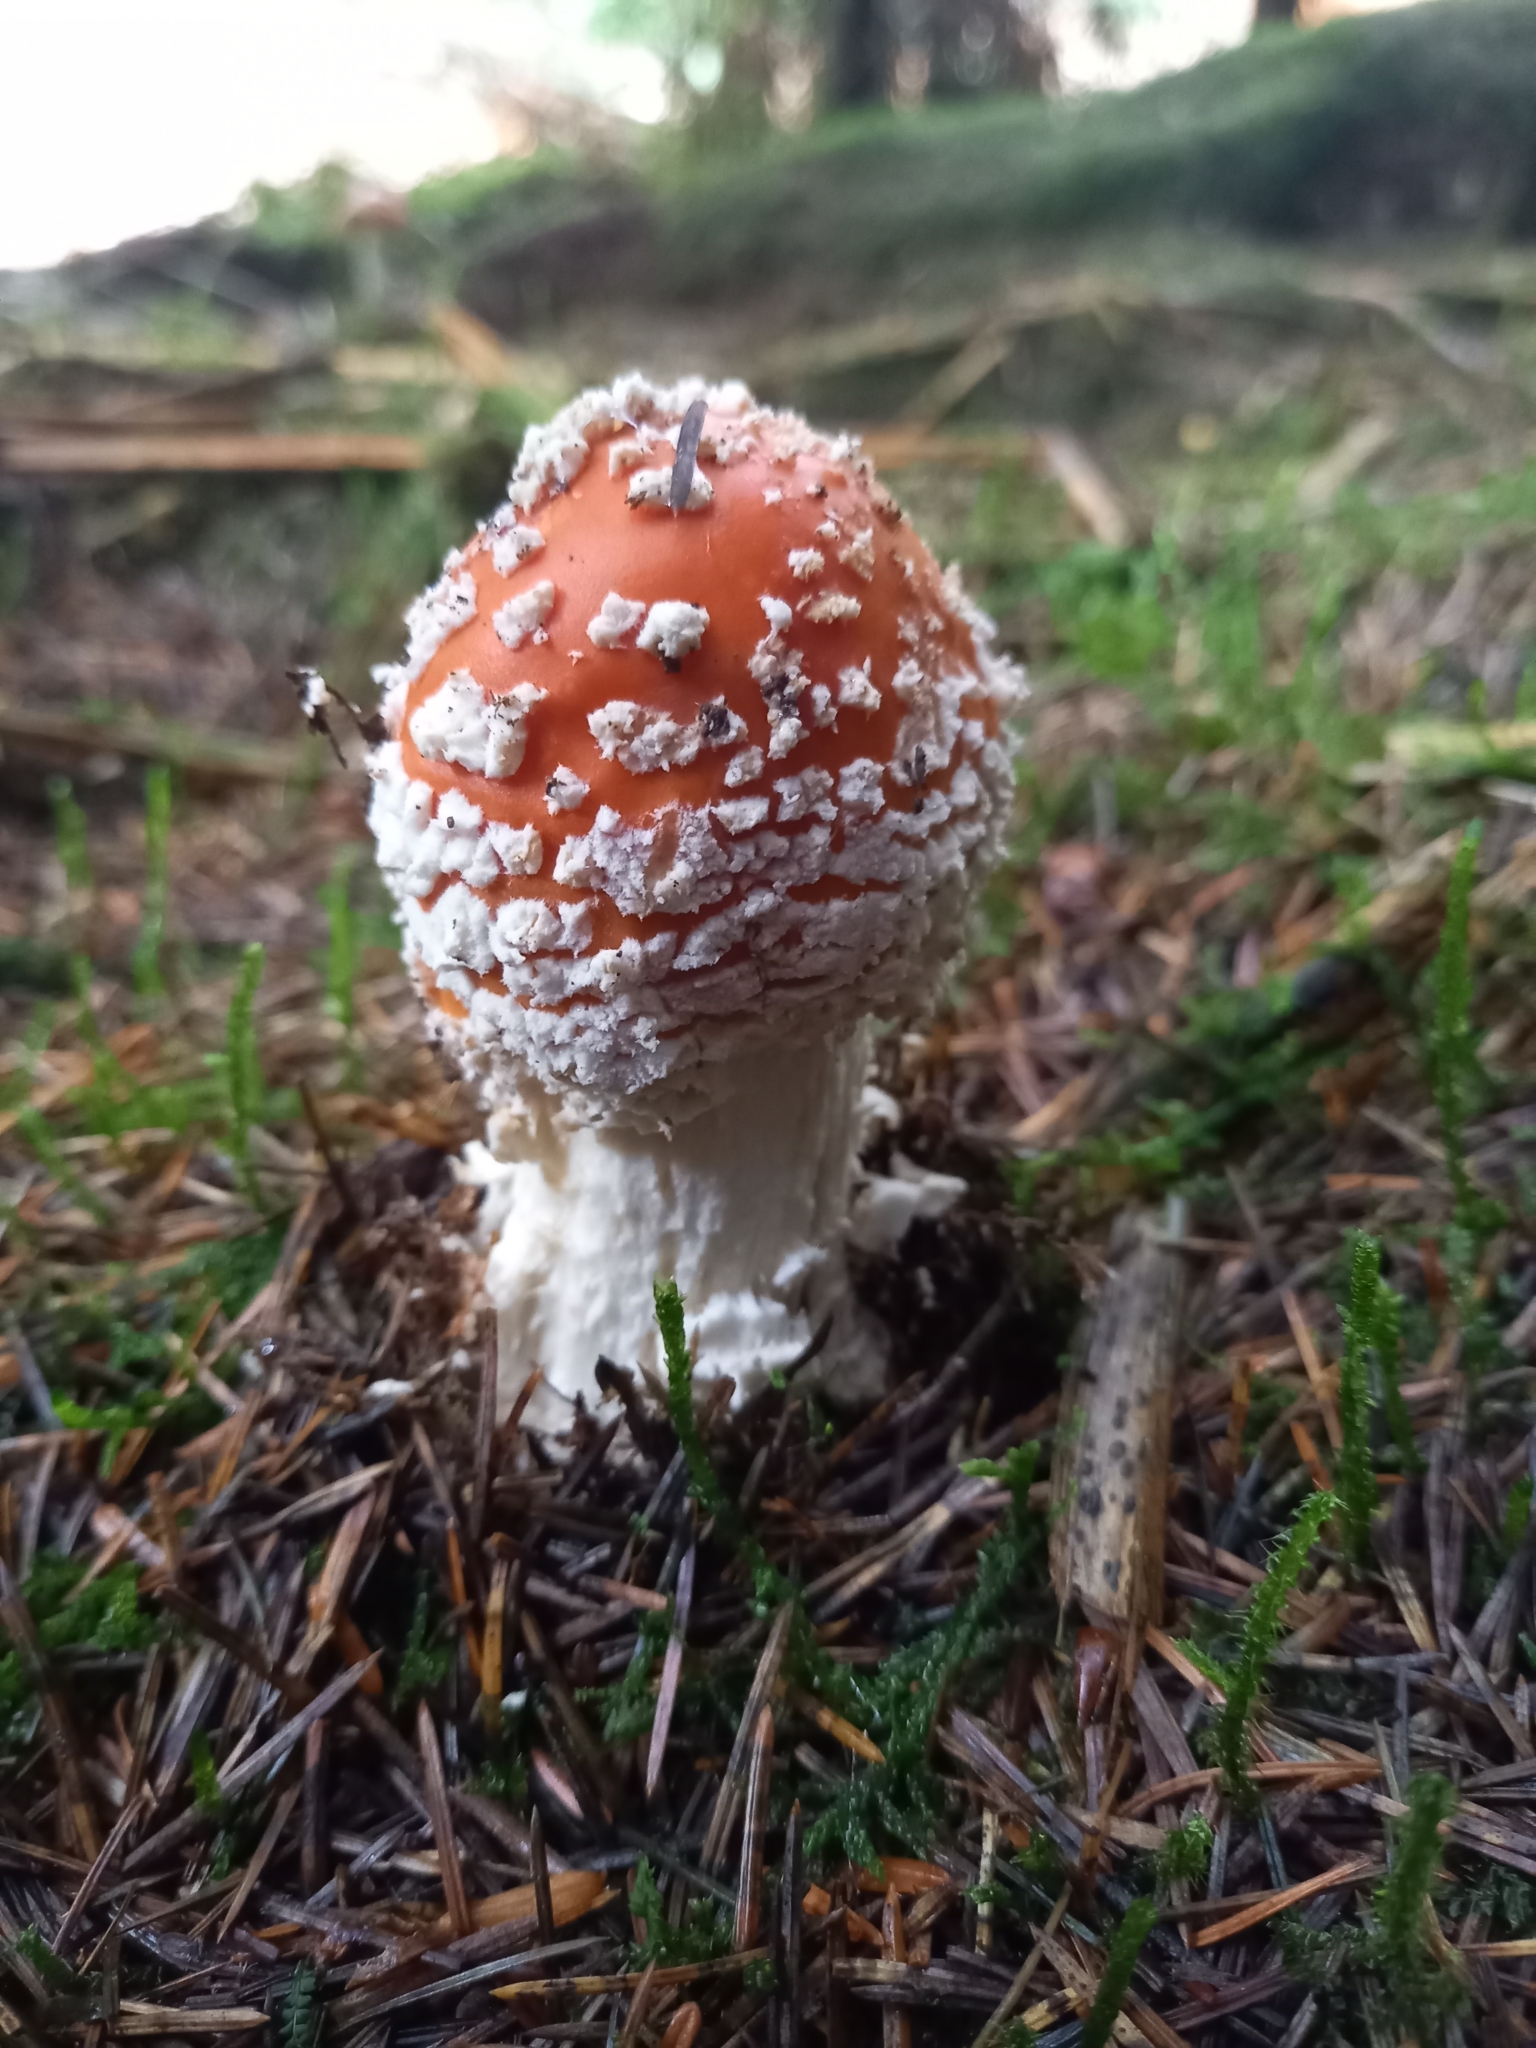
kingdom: Fungi
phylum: Basidiomycota
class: Agaricomycetes
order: Agaricales
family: Amanitaceae
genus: Amanita
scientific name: Amanita muscaria
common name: Fly agaric
